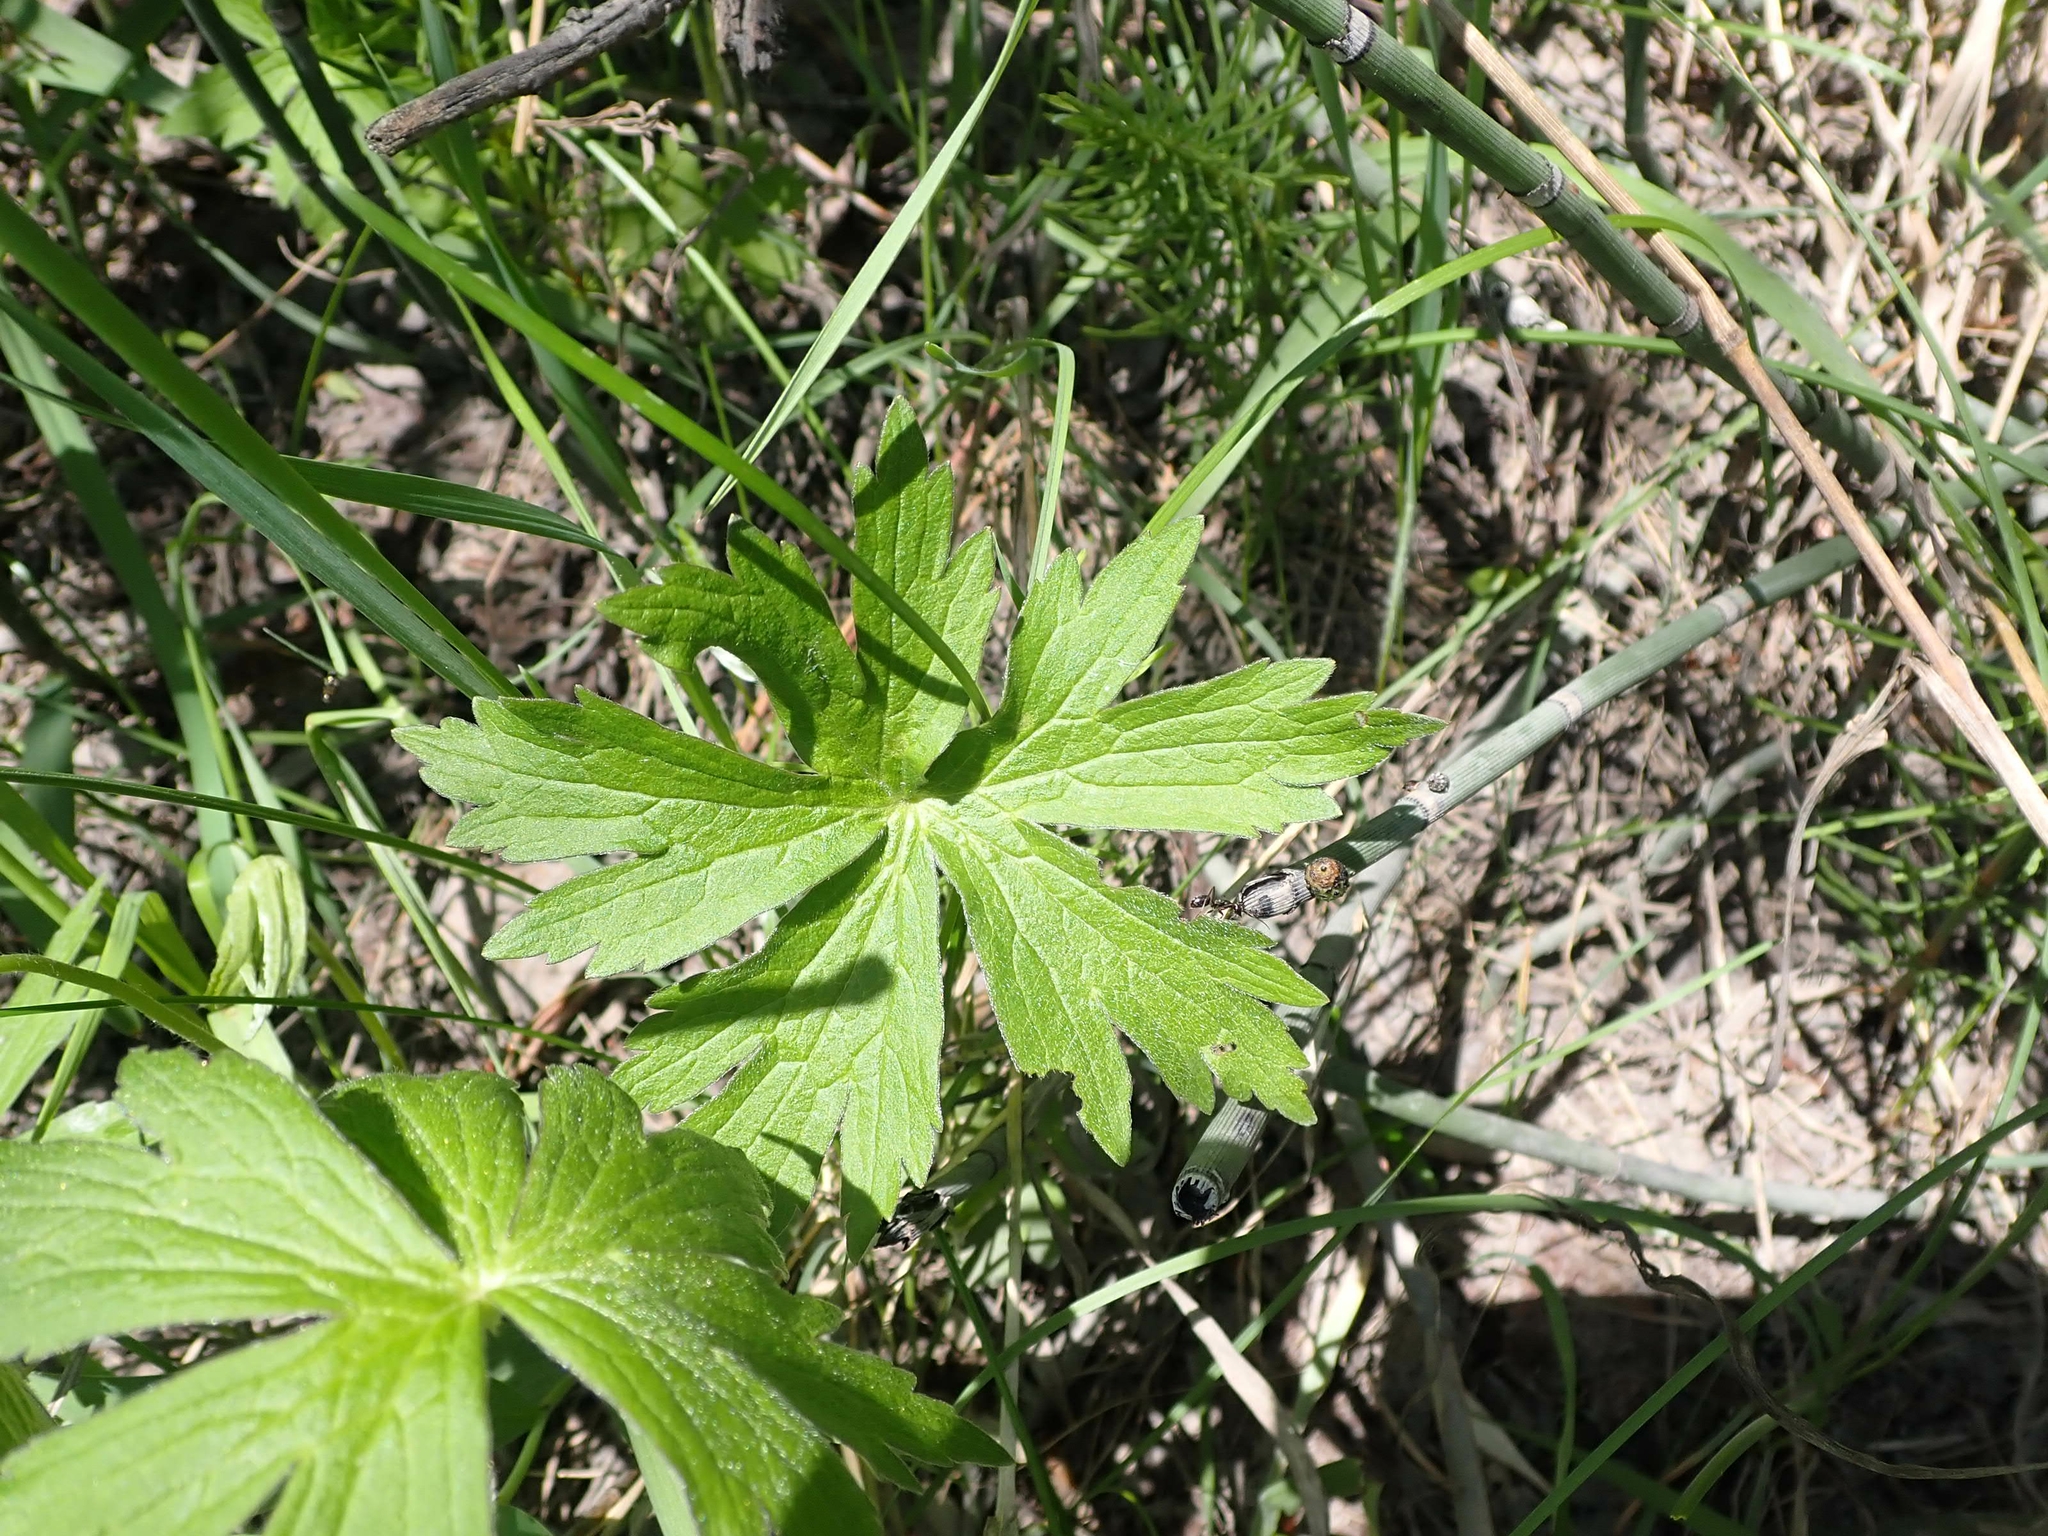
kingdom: Plantae
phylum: Tracheophyta
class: Magnoliopsida
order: Ranunculales
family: Ranunculaceae
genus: Anemonastrum
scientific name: Anemonastrum canadense
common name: Canada anemone
